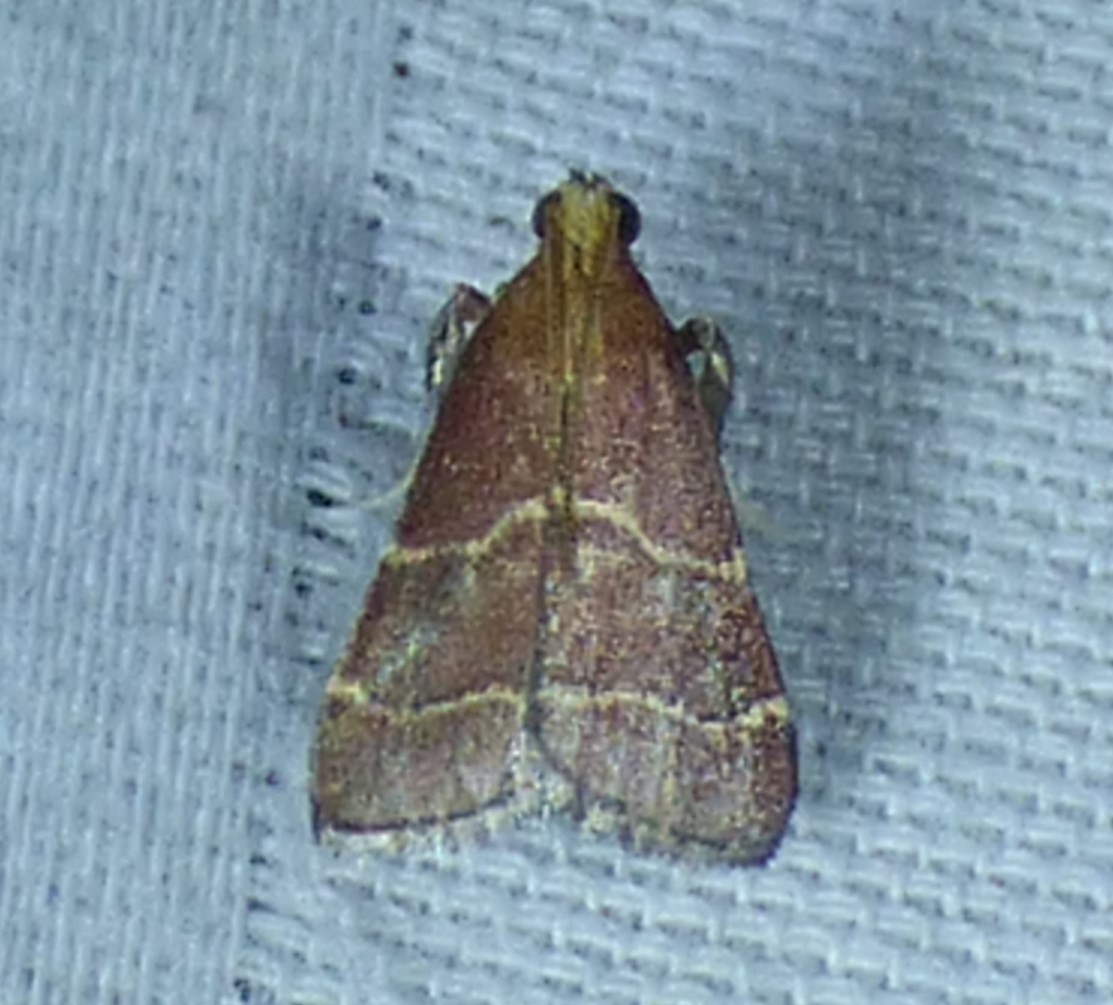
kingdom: Animalia
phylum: Arthropoda
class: Insecta
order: Lepidoptera
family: Pyralidae
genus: Arta
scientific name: Arta statalis
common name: Posturing arta moth
